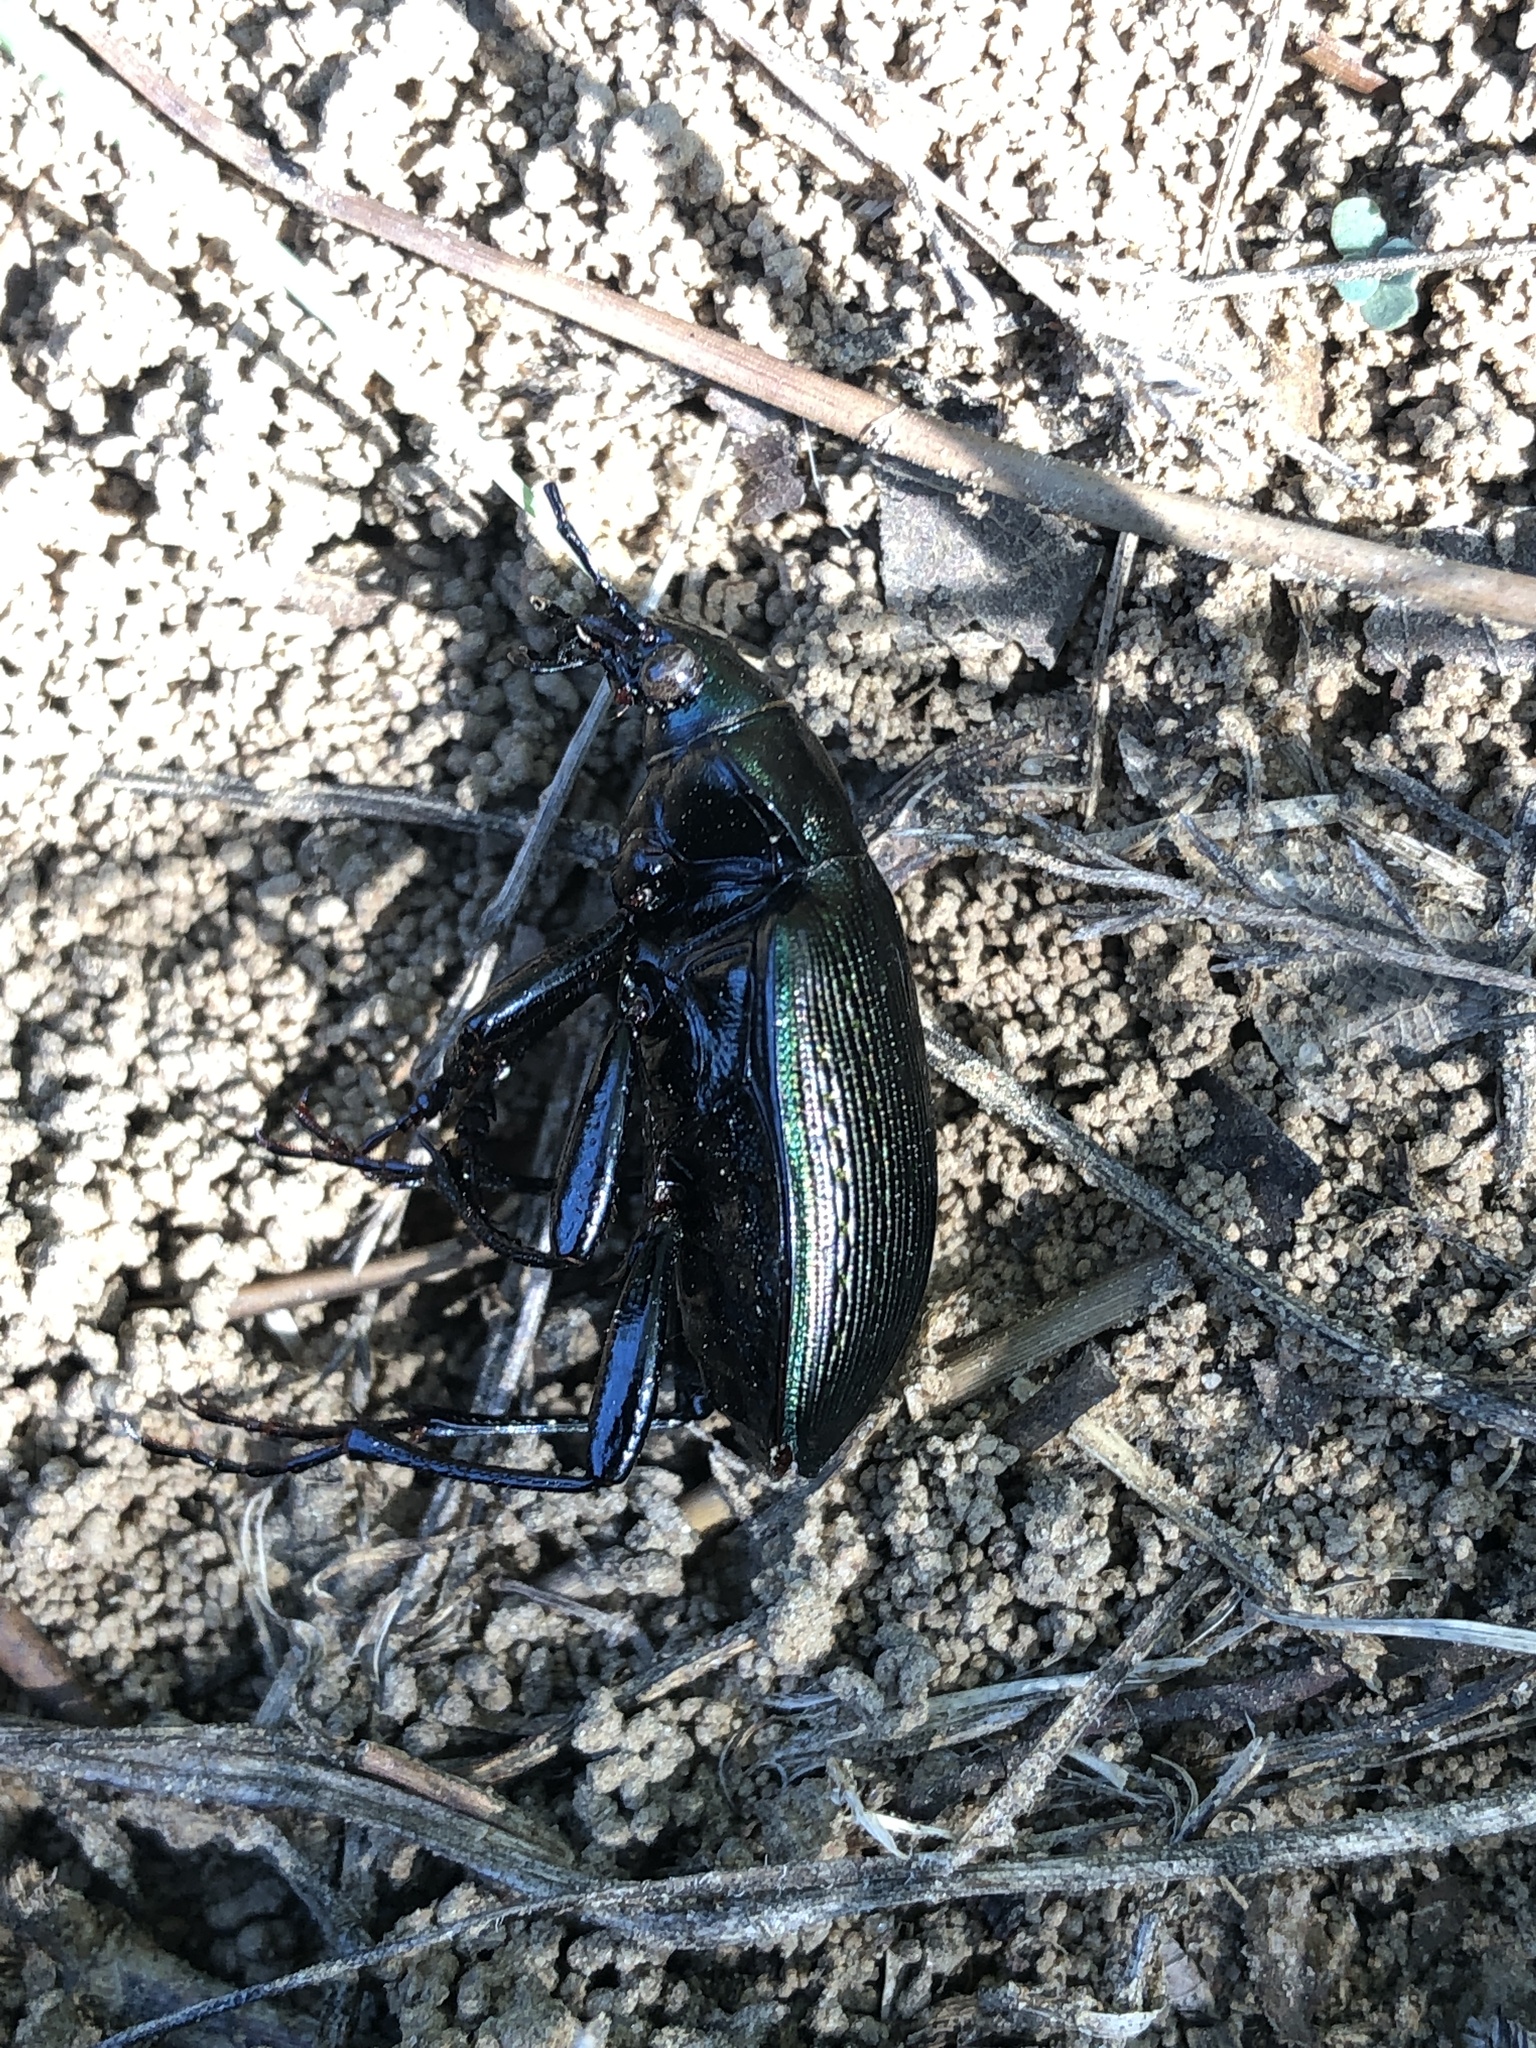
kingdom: Animalia
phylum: Arthropoda
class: Insecta
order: Coleoptera
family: Carabidae
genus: Calosoma
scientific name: Calosoma sayi
